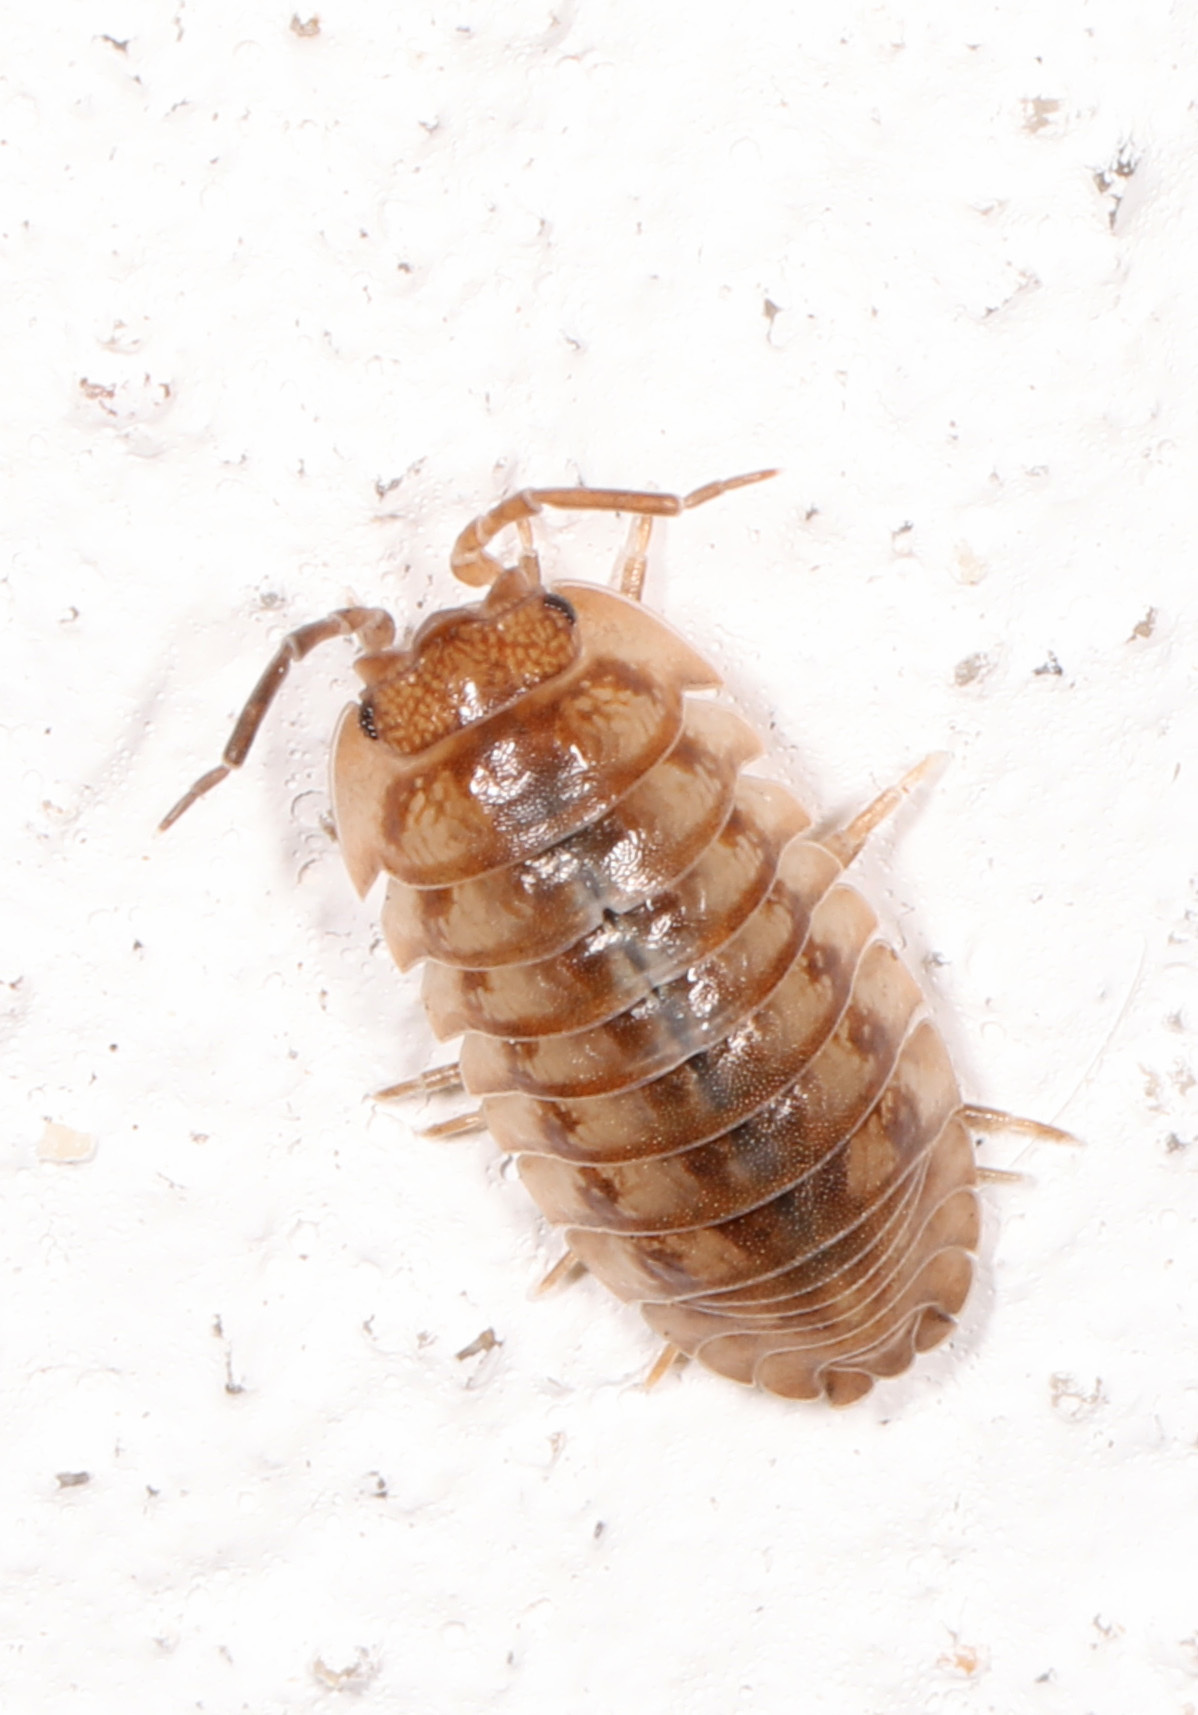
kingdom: Animalia
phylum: Arthropoda
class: Malacostraca
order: Isopoda
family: Armadillidiidae
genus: Armadillidium
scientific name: Armadillidium nasatum
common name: Isopod
